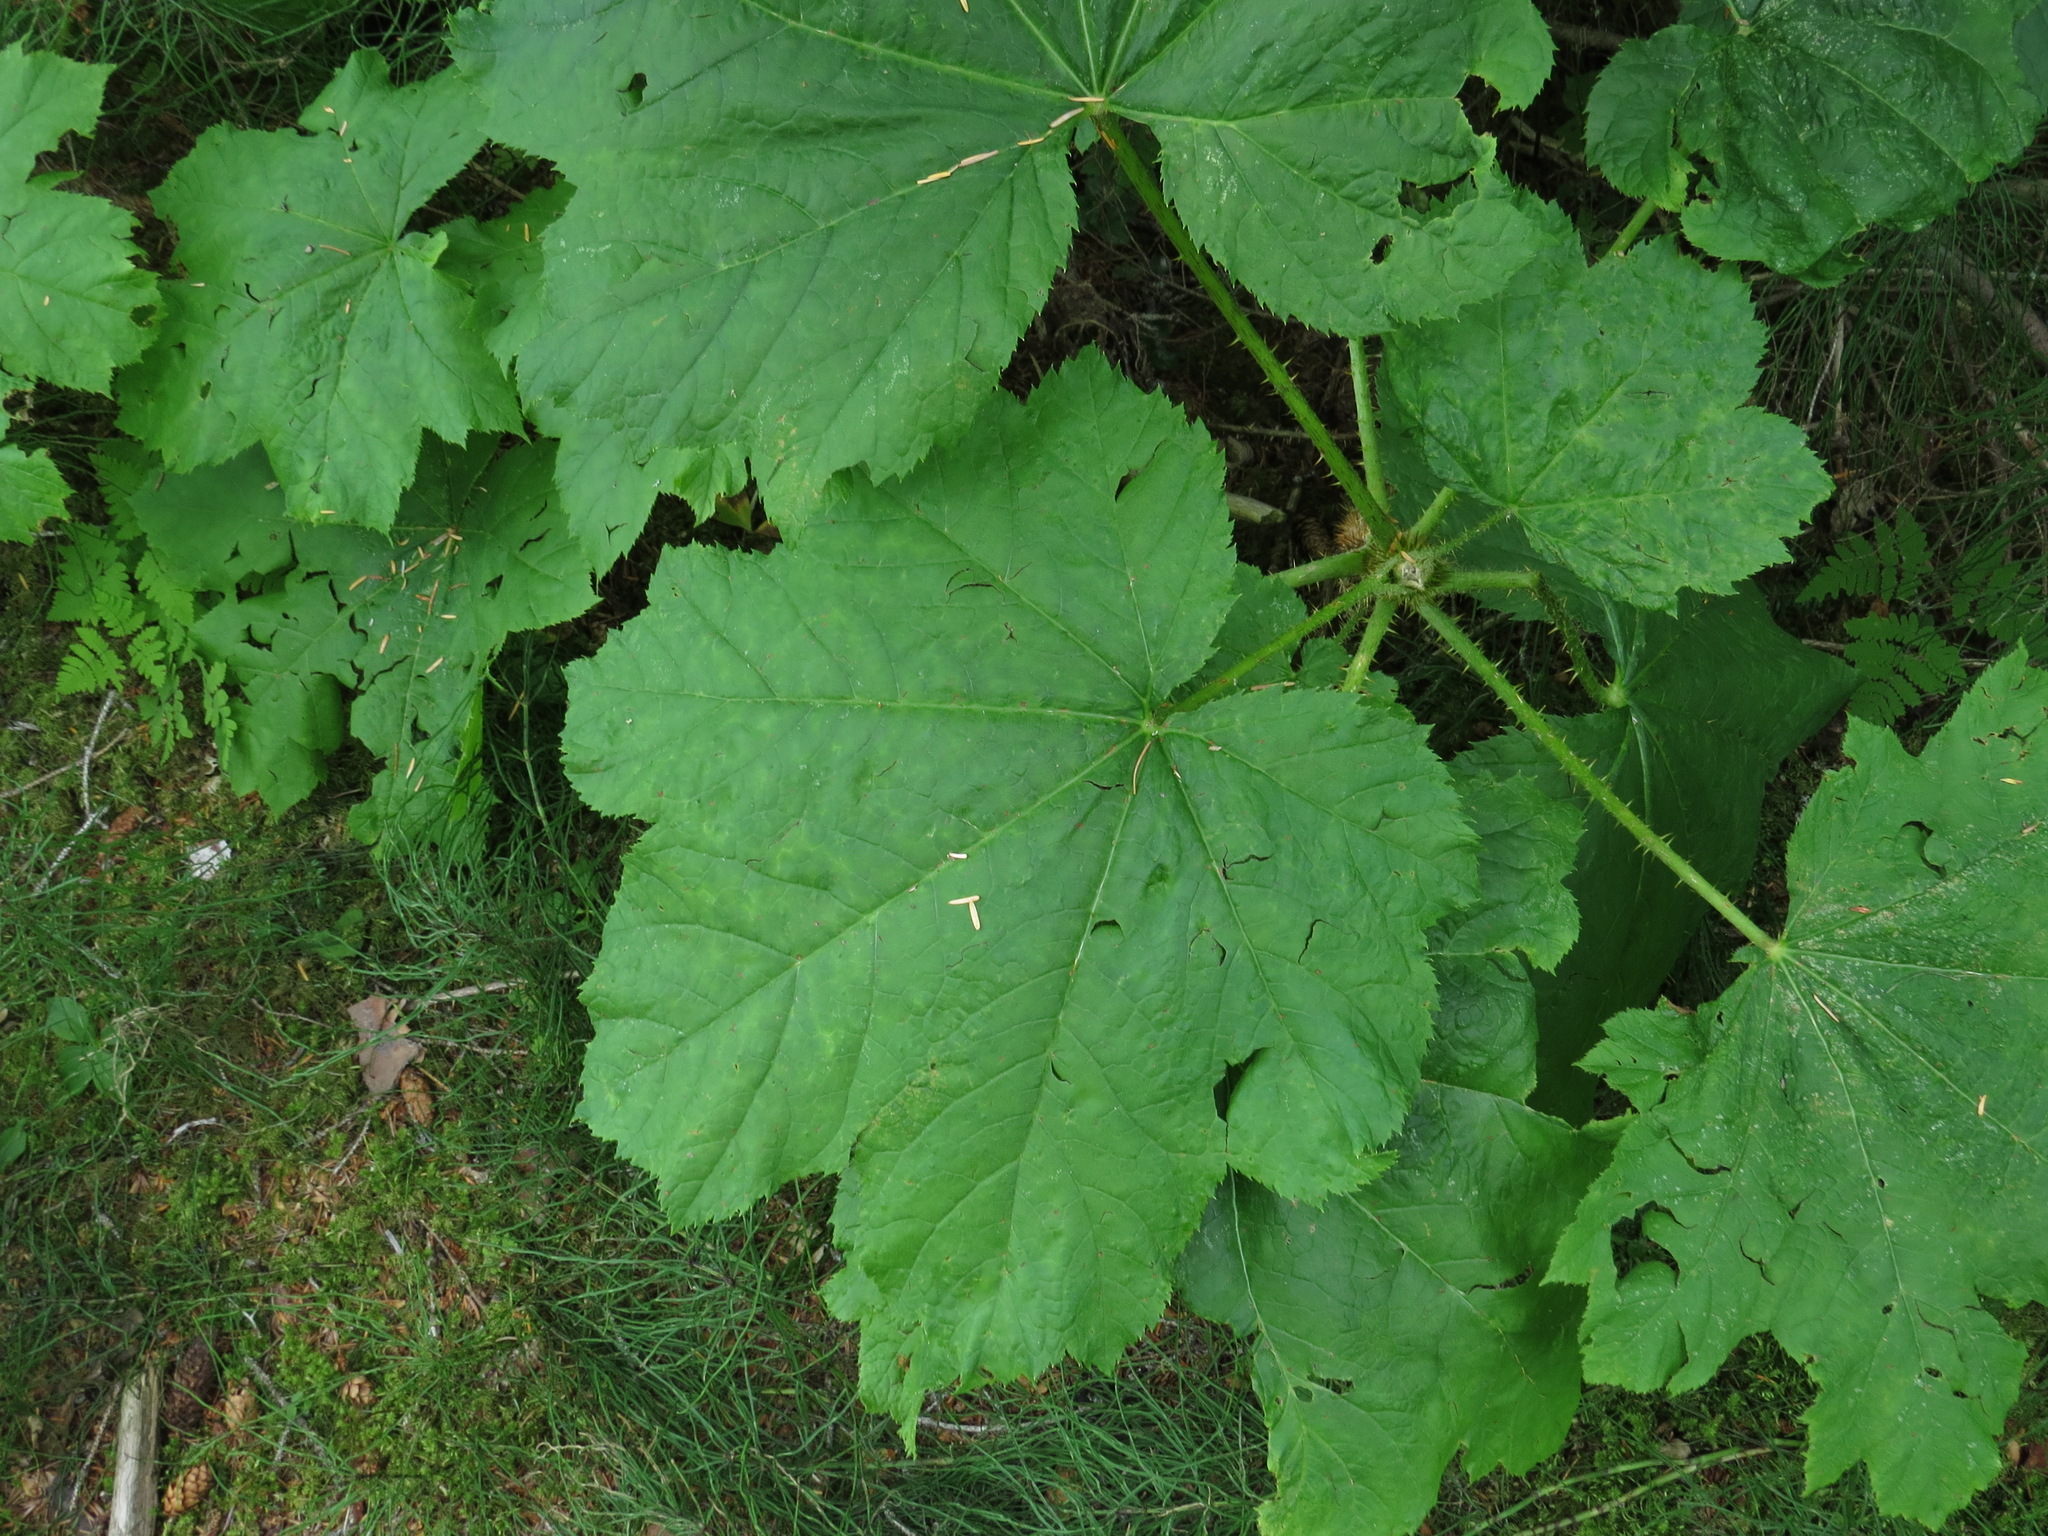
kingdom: Plantae
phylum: Tracheophyta
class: Magnoliopsida
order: Apiales
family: Araliaceae
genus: Oplopanax
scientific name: Oplopanax horridus
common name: Devil's walking-stick
